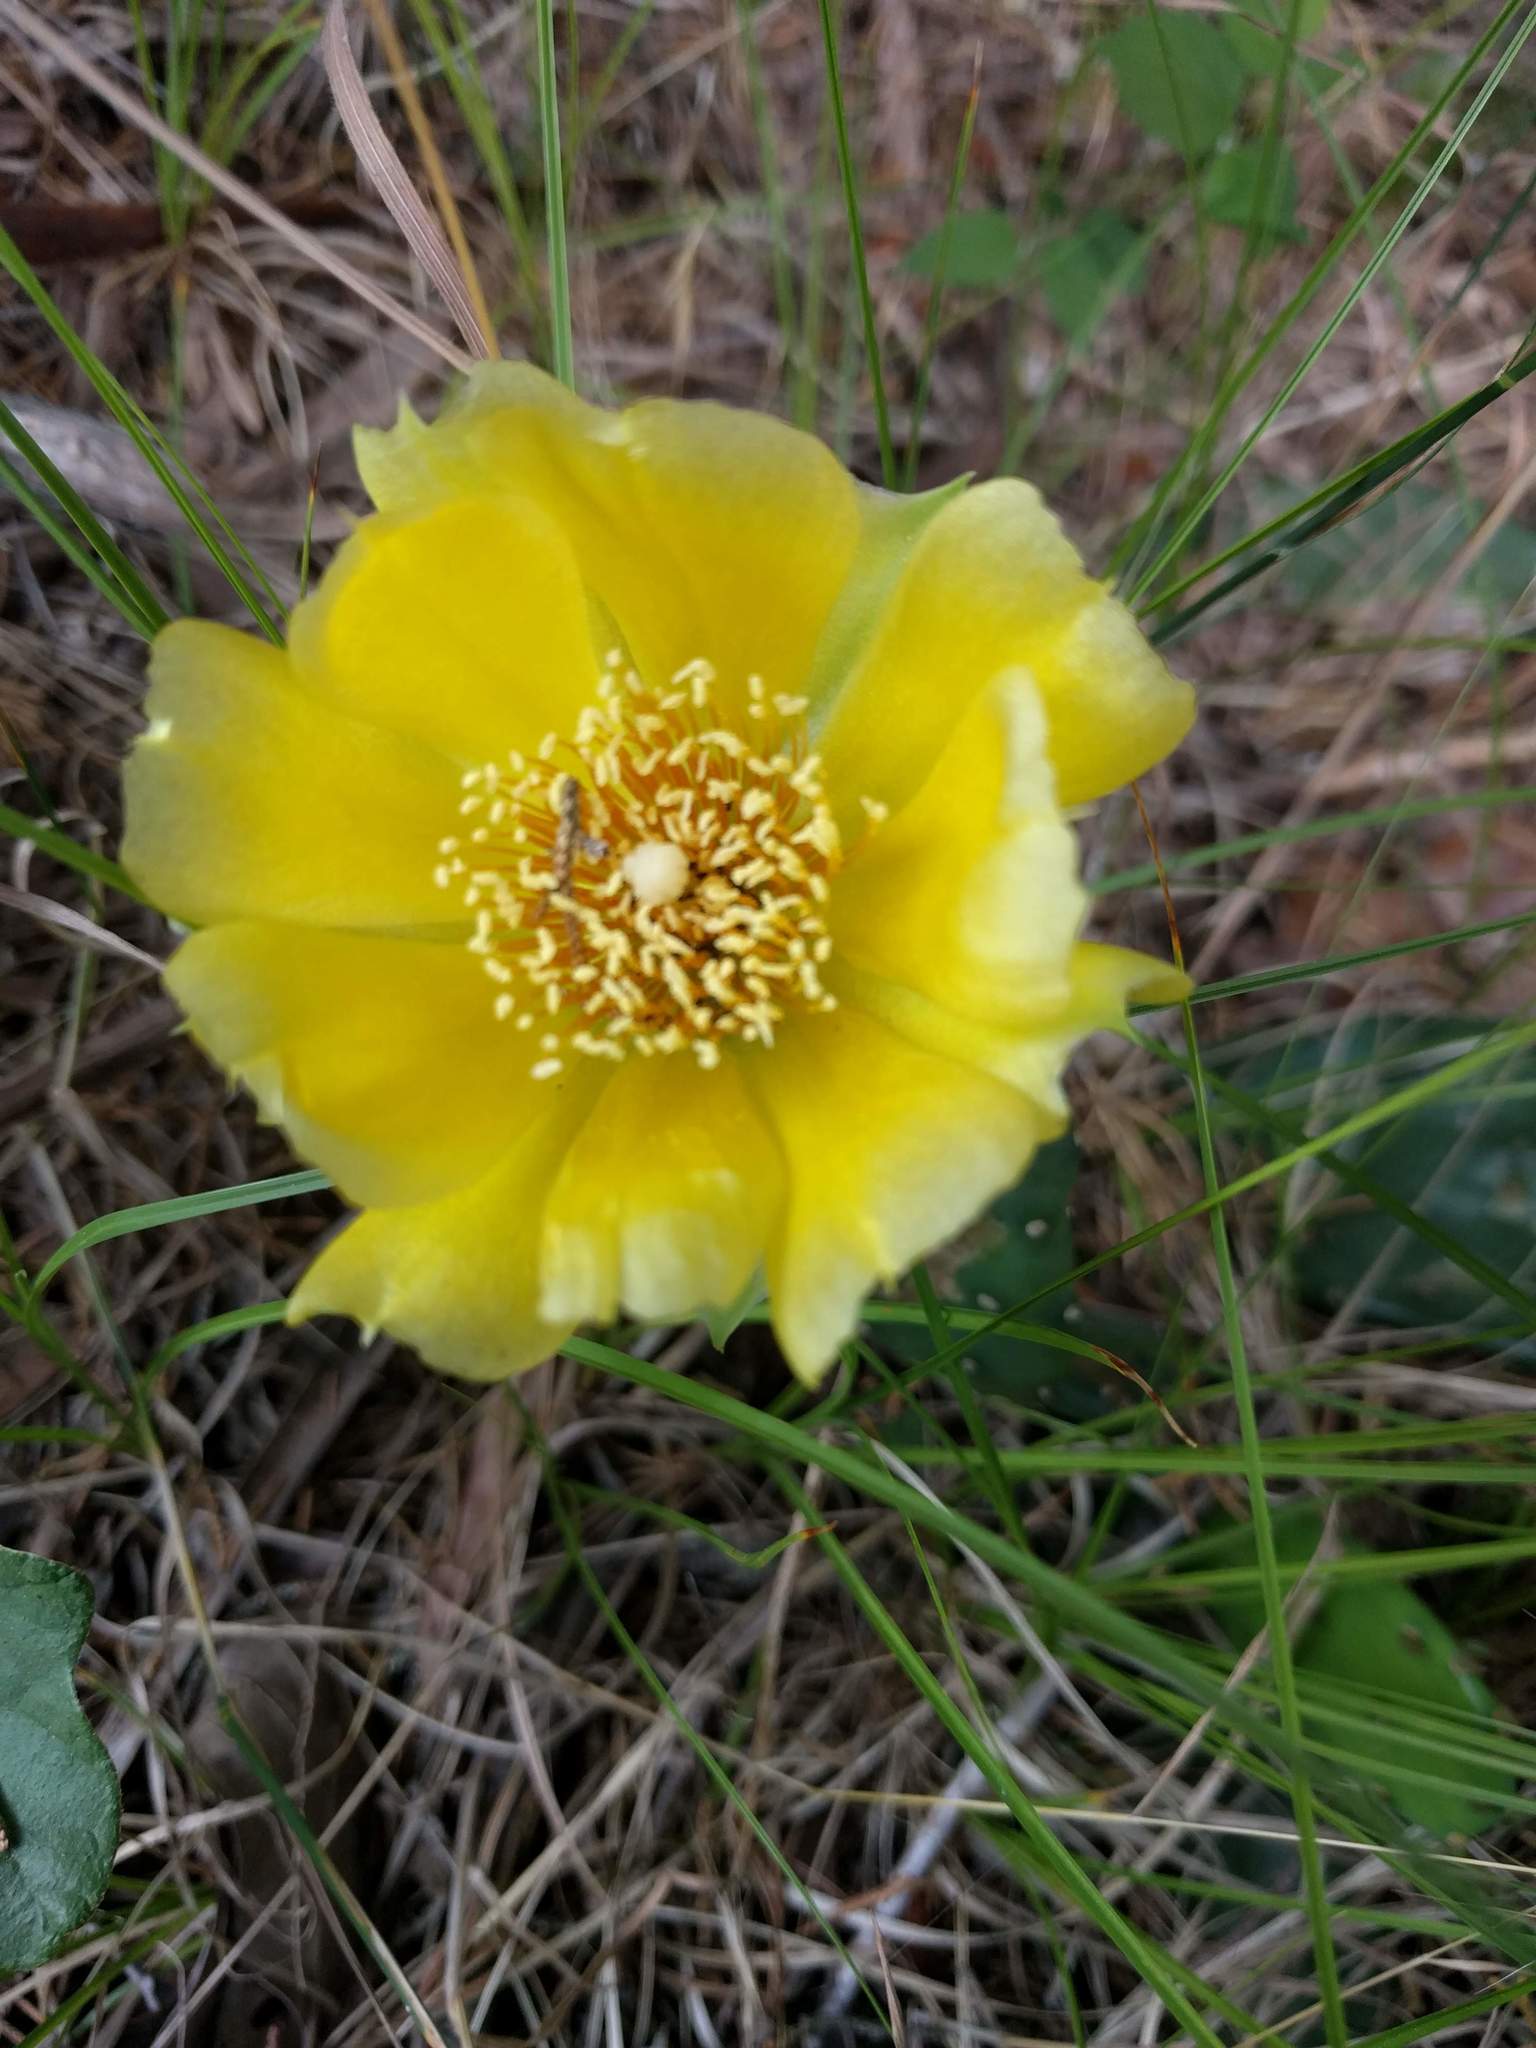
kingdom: Plantae
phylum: Tracheophyta
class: Magnoliopsida
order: Caryophyllales
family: Cactaceae
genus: Opuntia
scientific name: Opuntia humifusa
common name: Eastern prickly-pear
